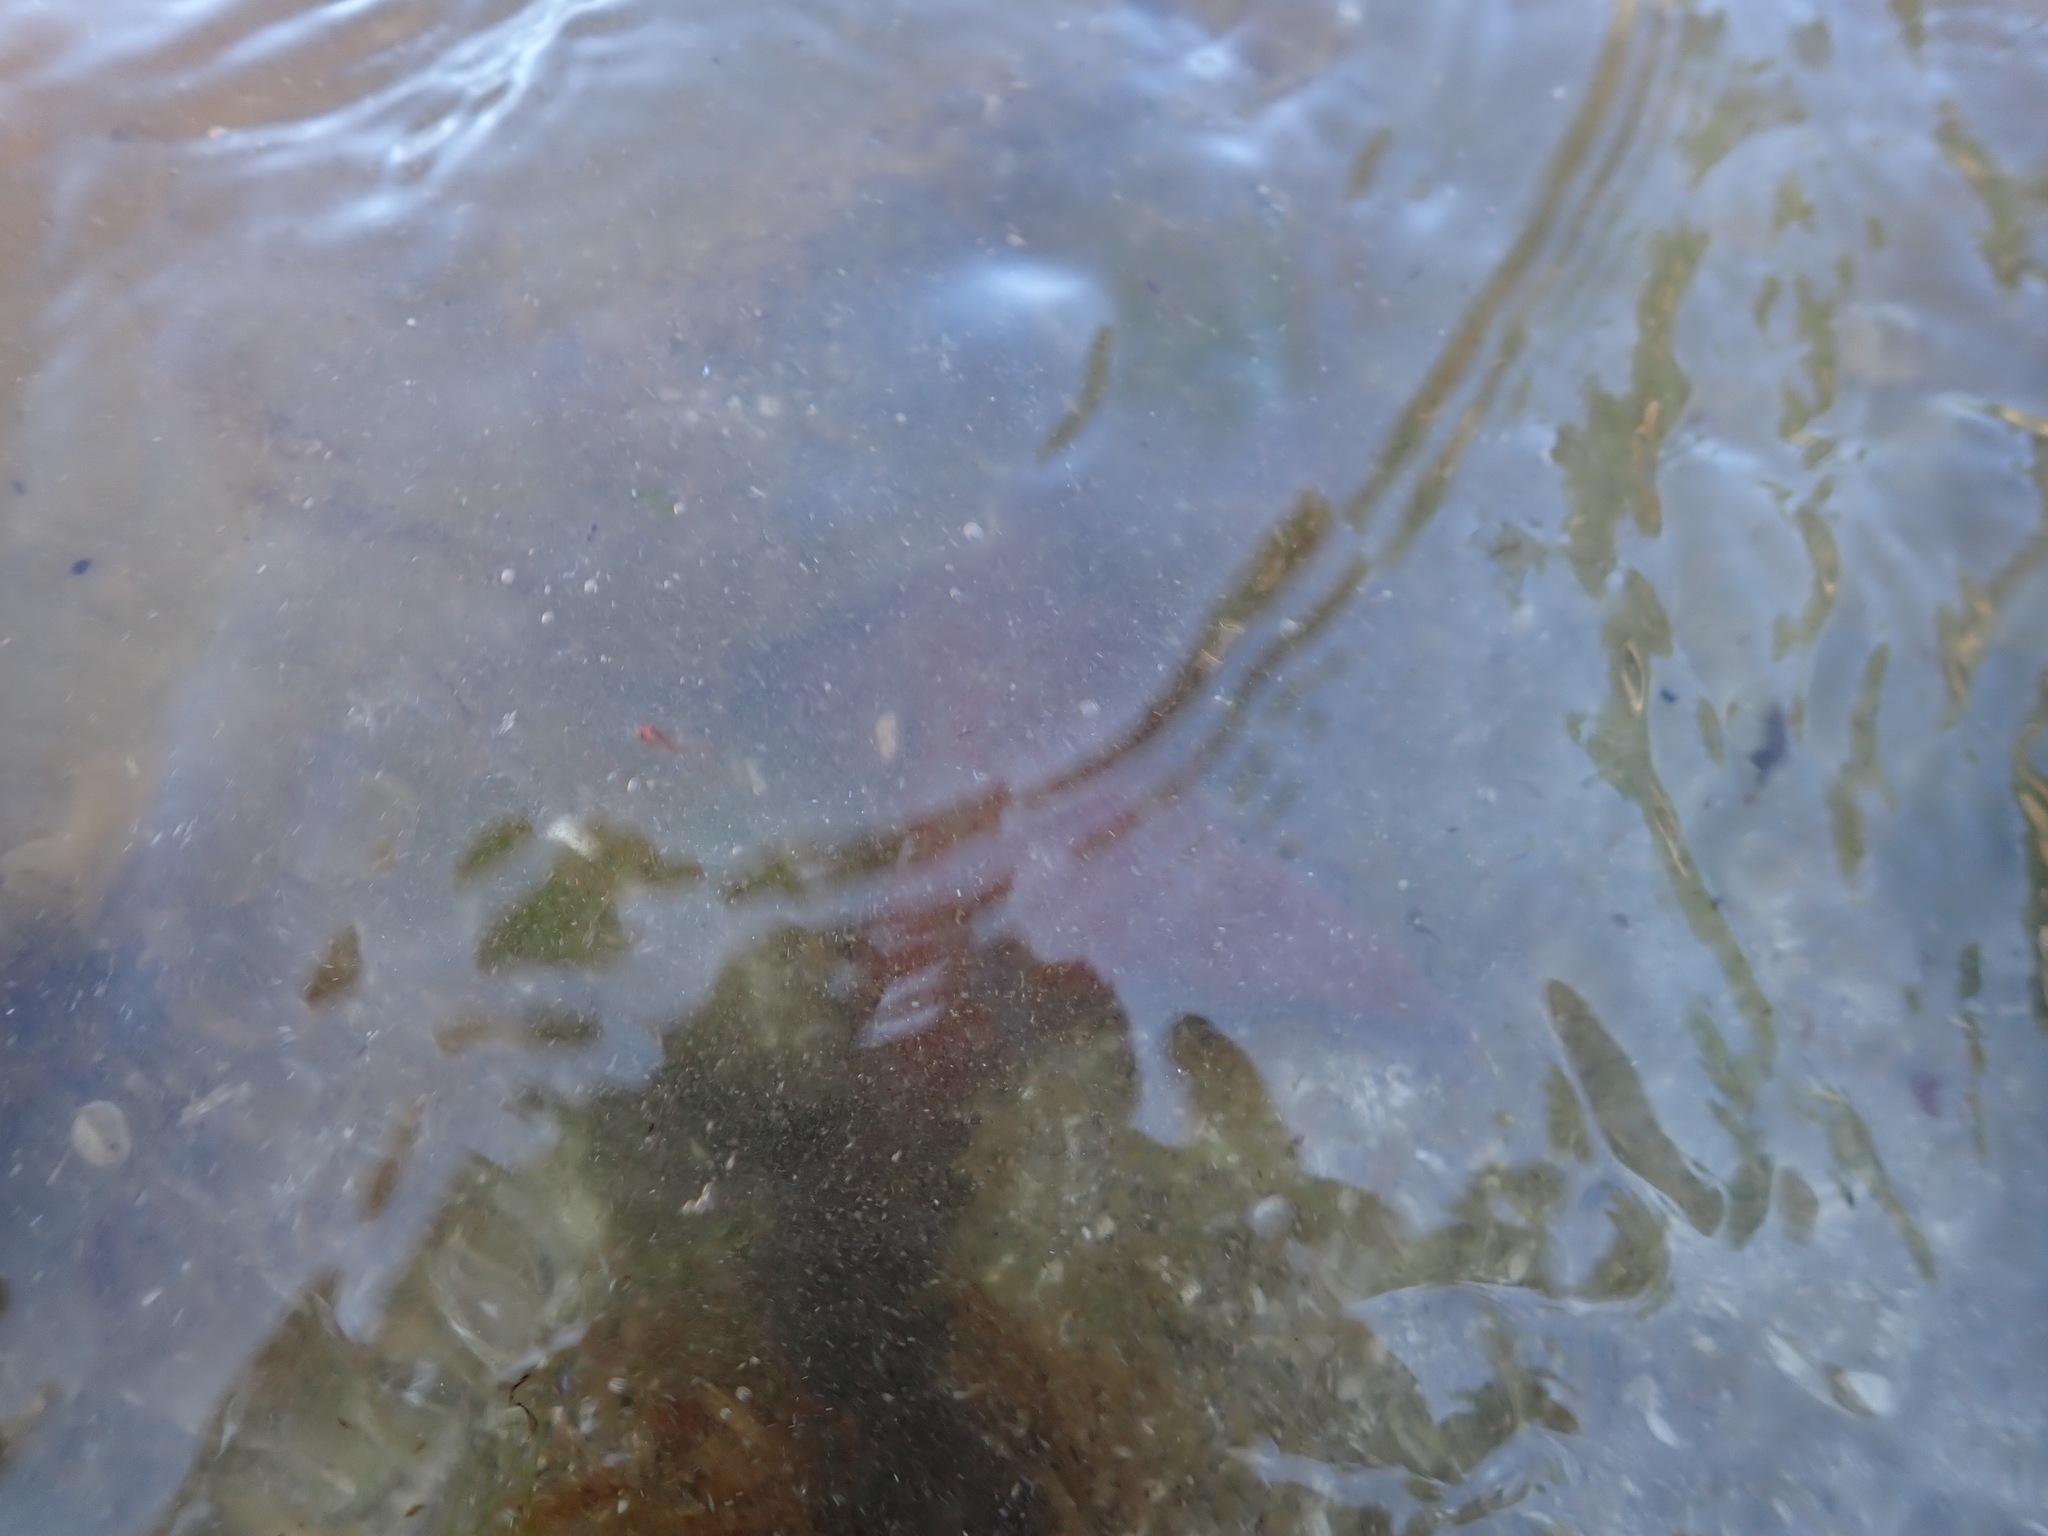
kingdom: Animalia
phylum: Echinodermata
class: Asteroidea
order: Valvatida
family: Asteropseidae
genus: Dermasterias
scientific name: Dermasterias imbricata
